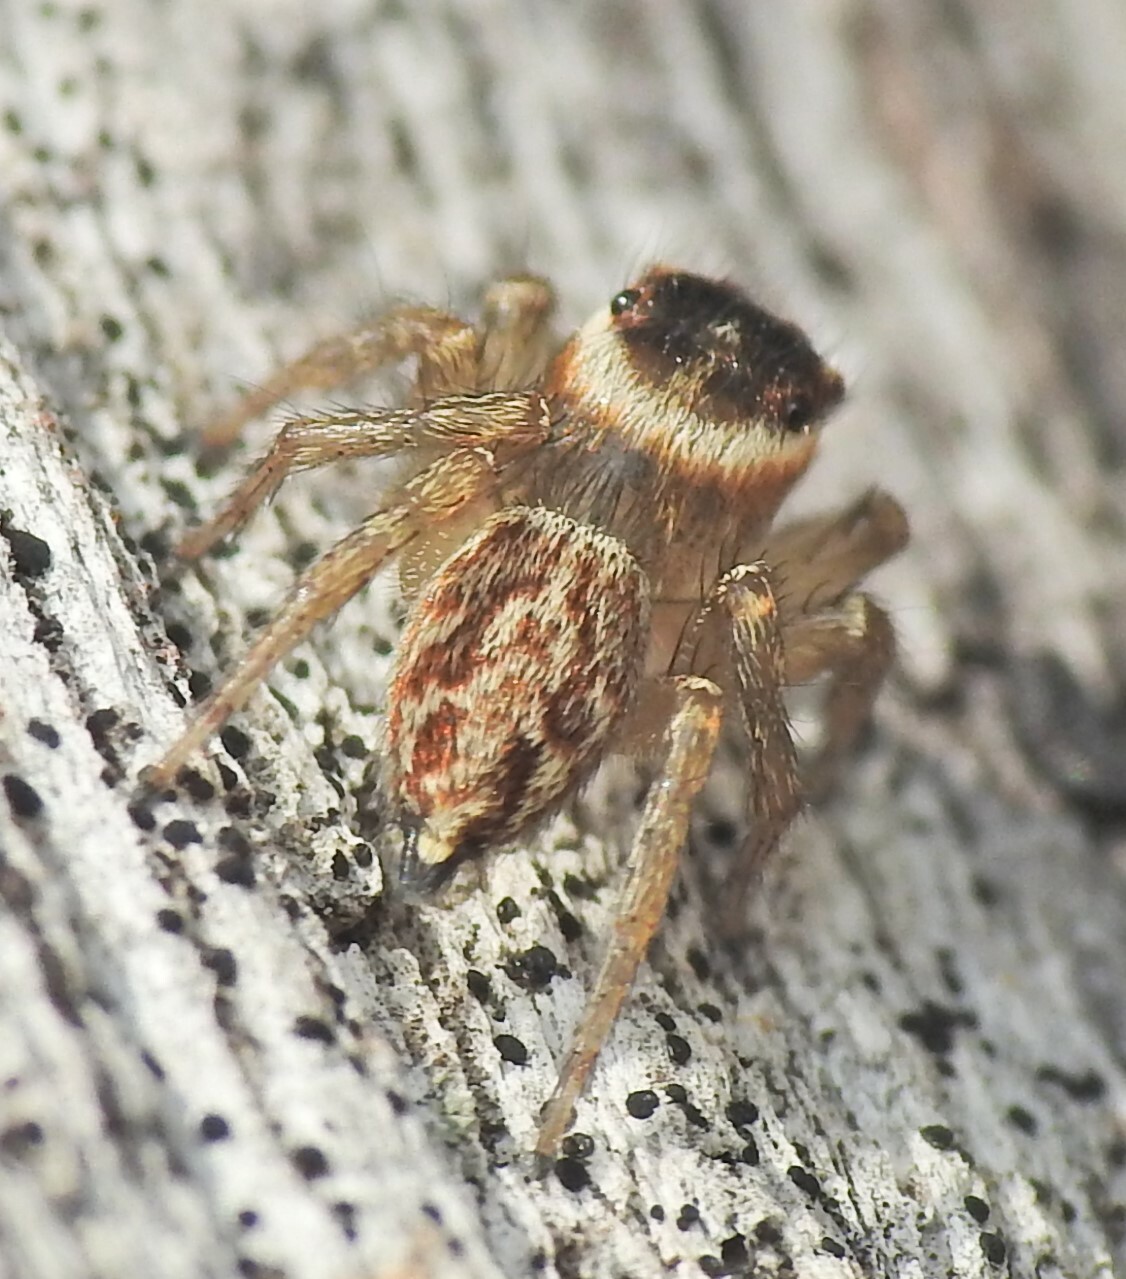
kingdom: Animalia
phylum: Arthropoda
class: Arachnida
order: Araneae
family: Salticidae
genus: Maratus
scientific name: Maratus griseus
